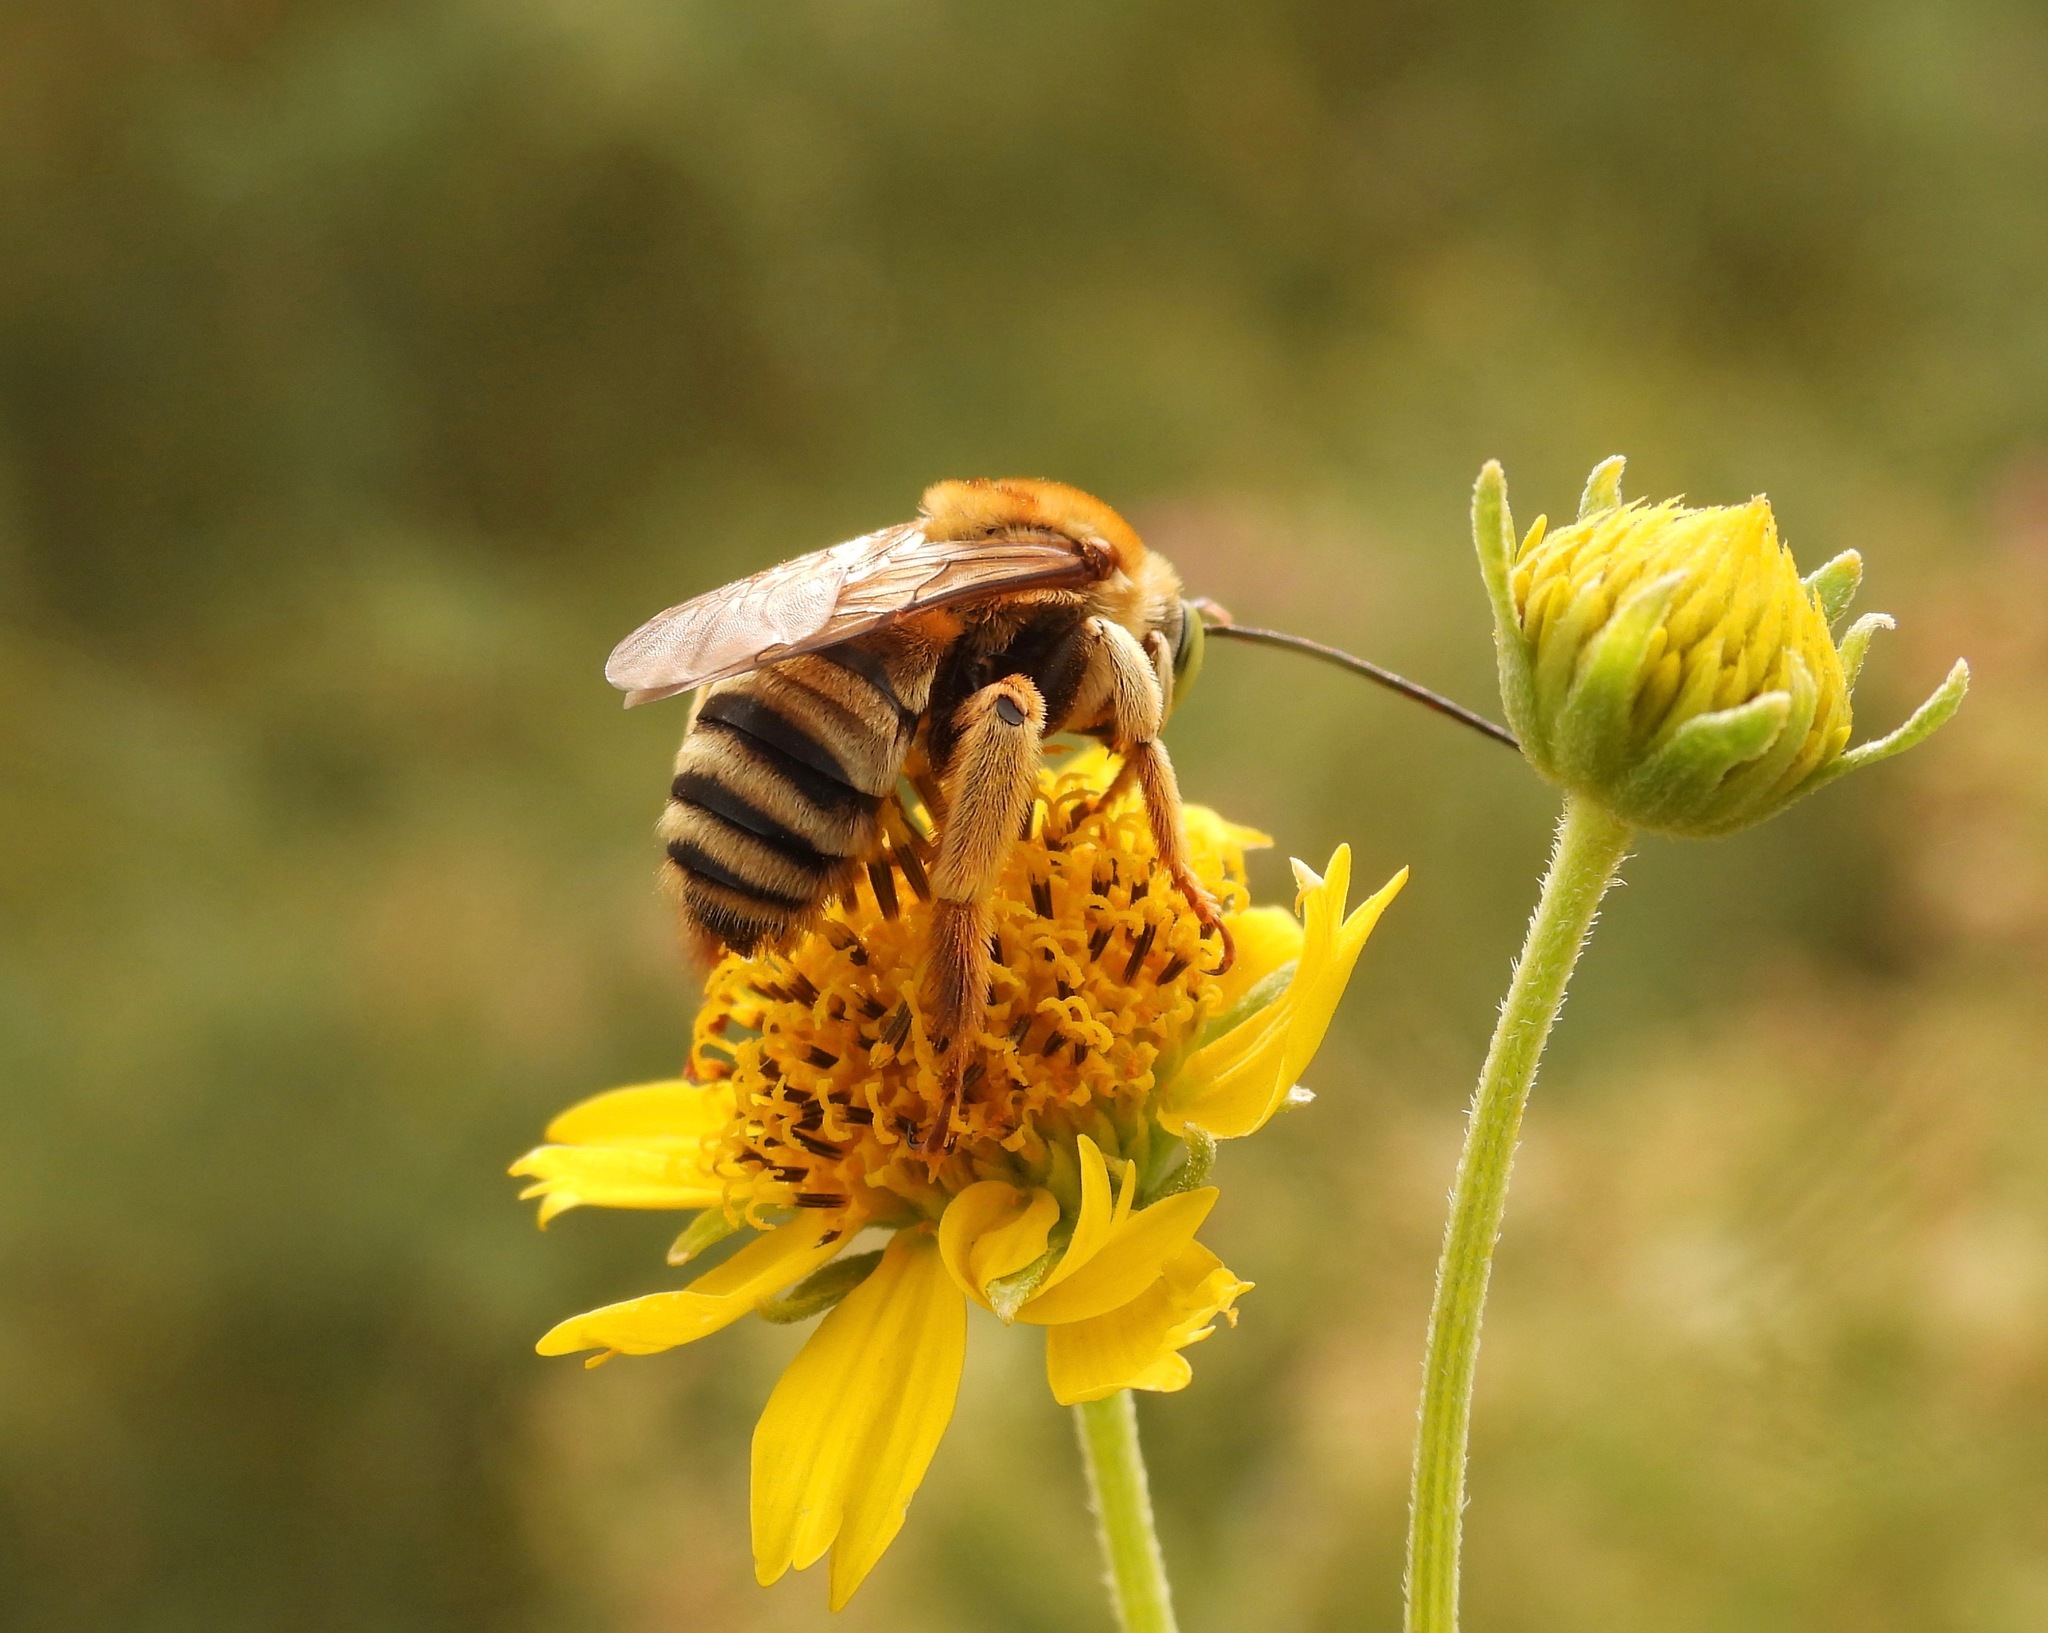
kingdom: Animalia
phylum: Arthropoda
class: Insecta
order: Hymenoptera
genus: Epimelissodes
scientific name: Epimelissodes
